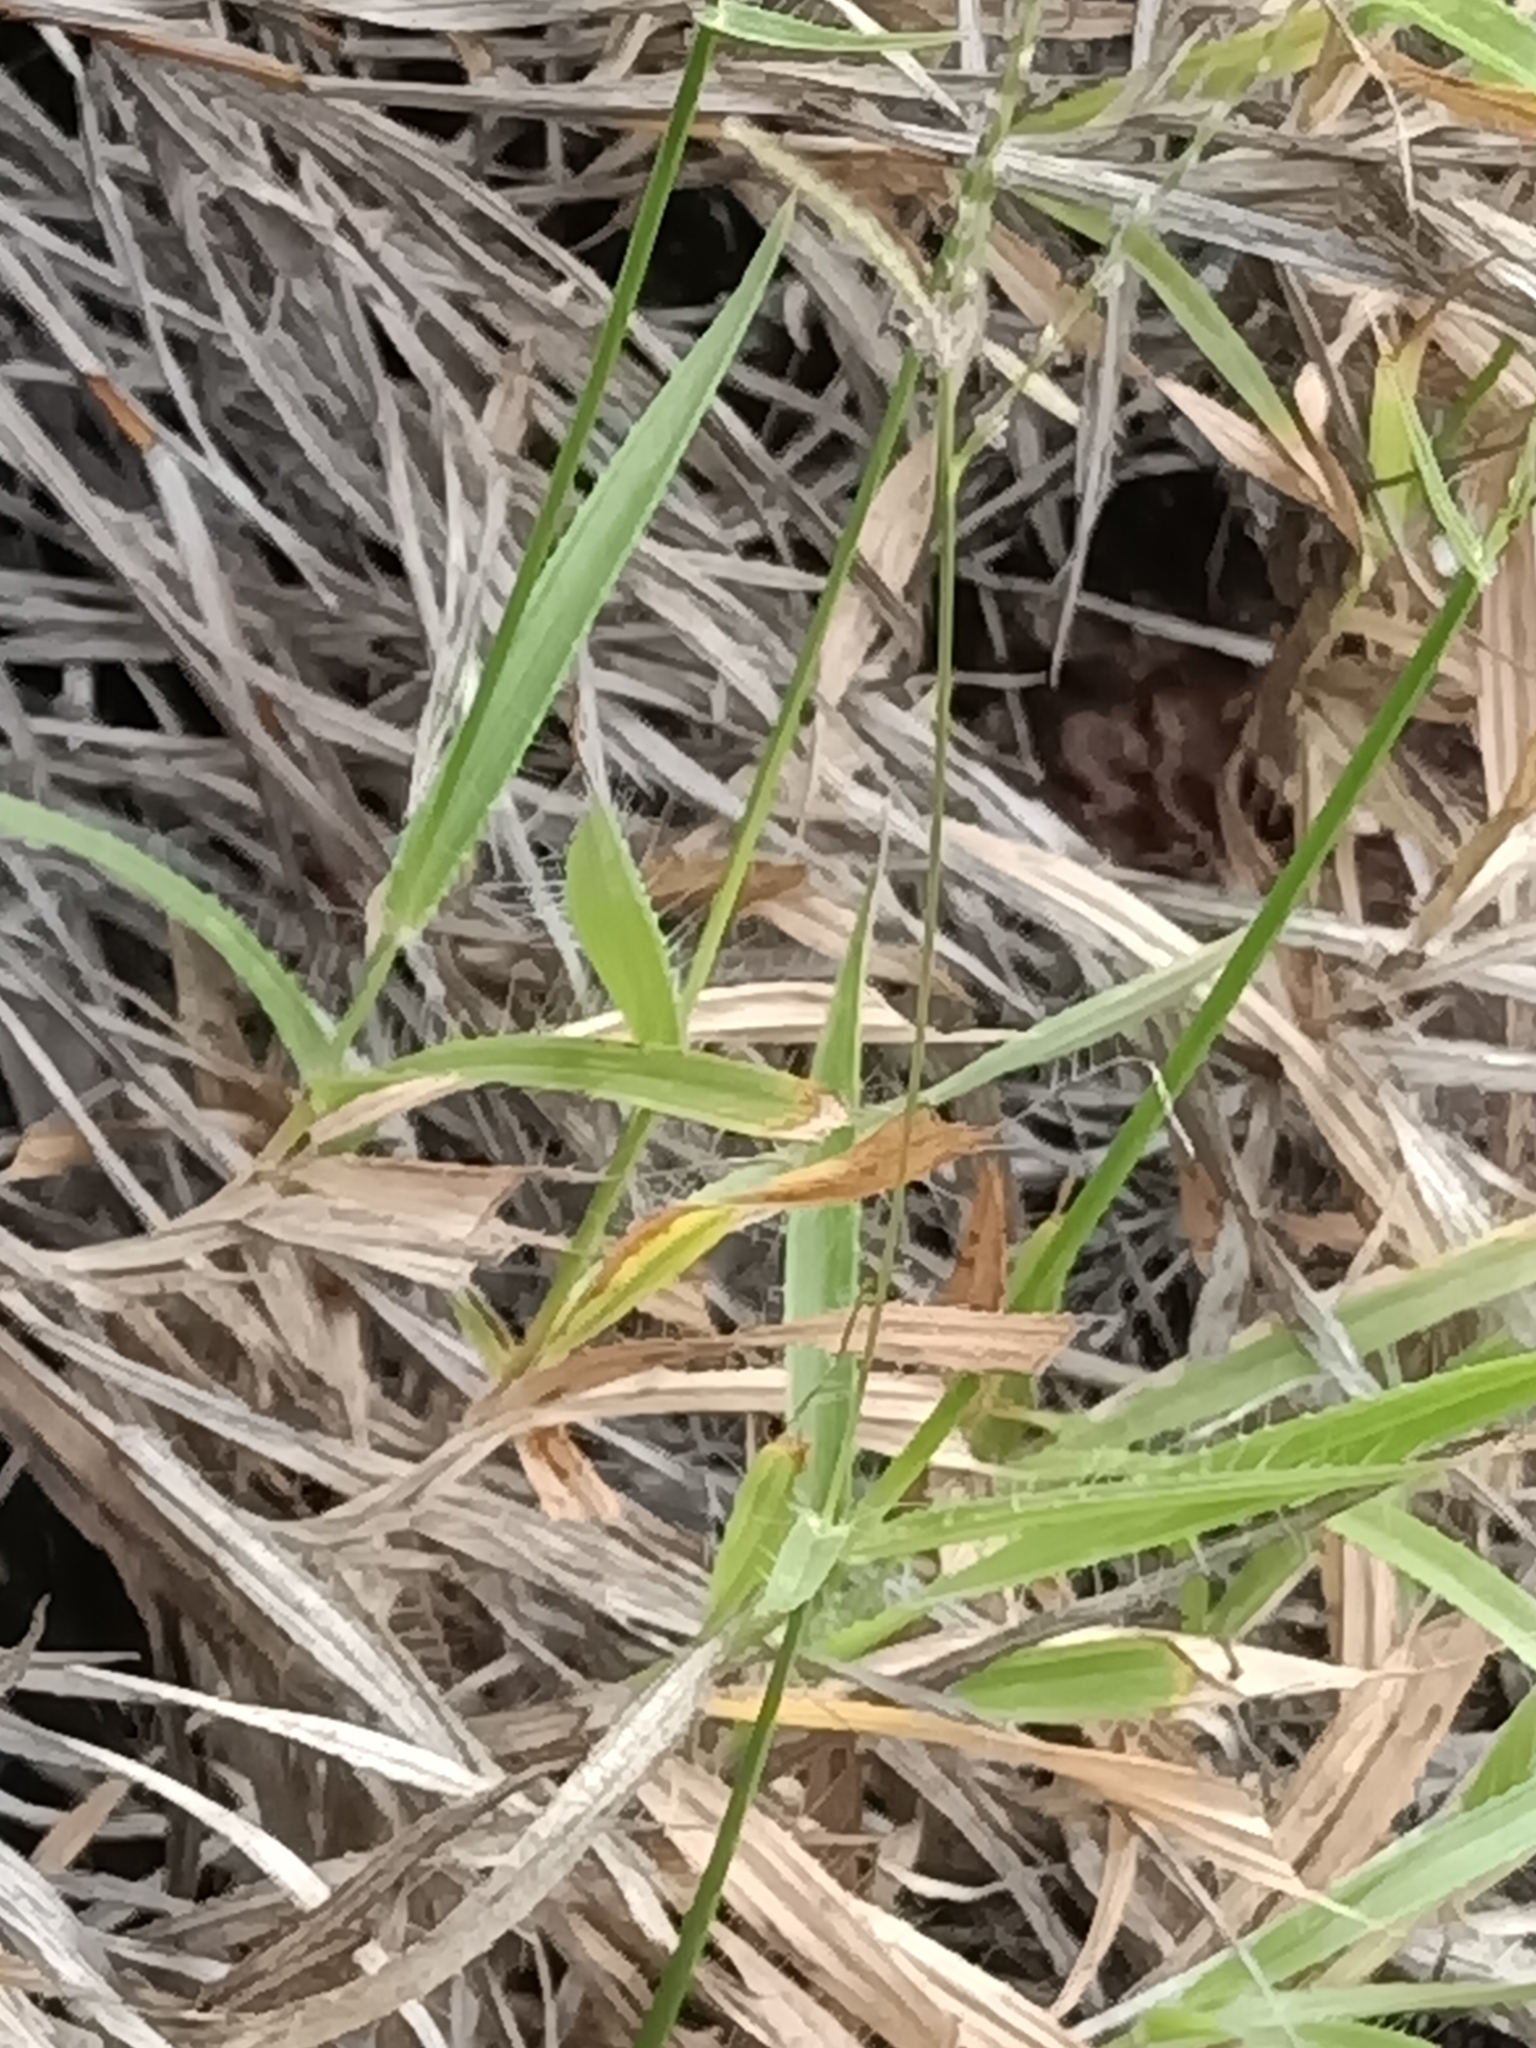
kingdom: Plantae
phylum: Tracheophyta
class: Liliopsida
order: Poales
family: Poaceae
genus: Axonopus
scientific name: Axonopus ramosus
